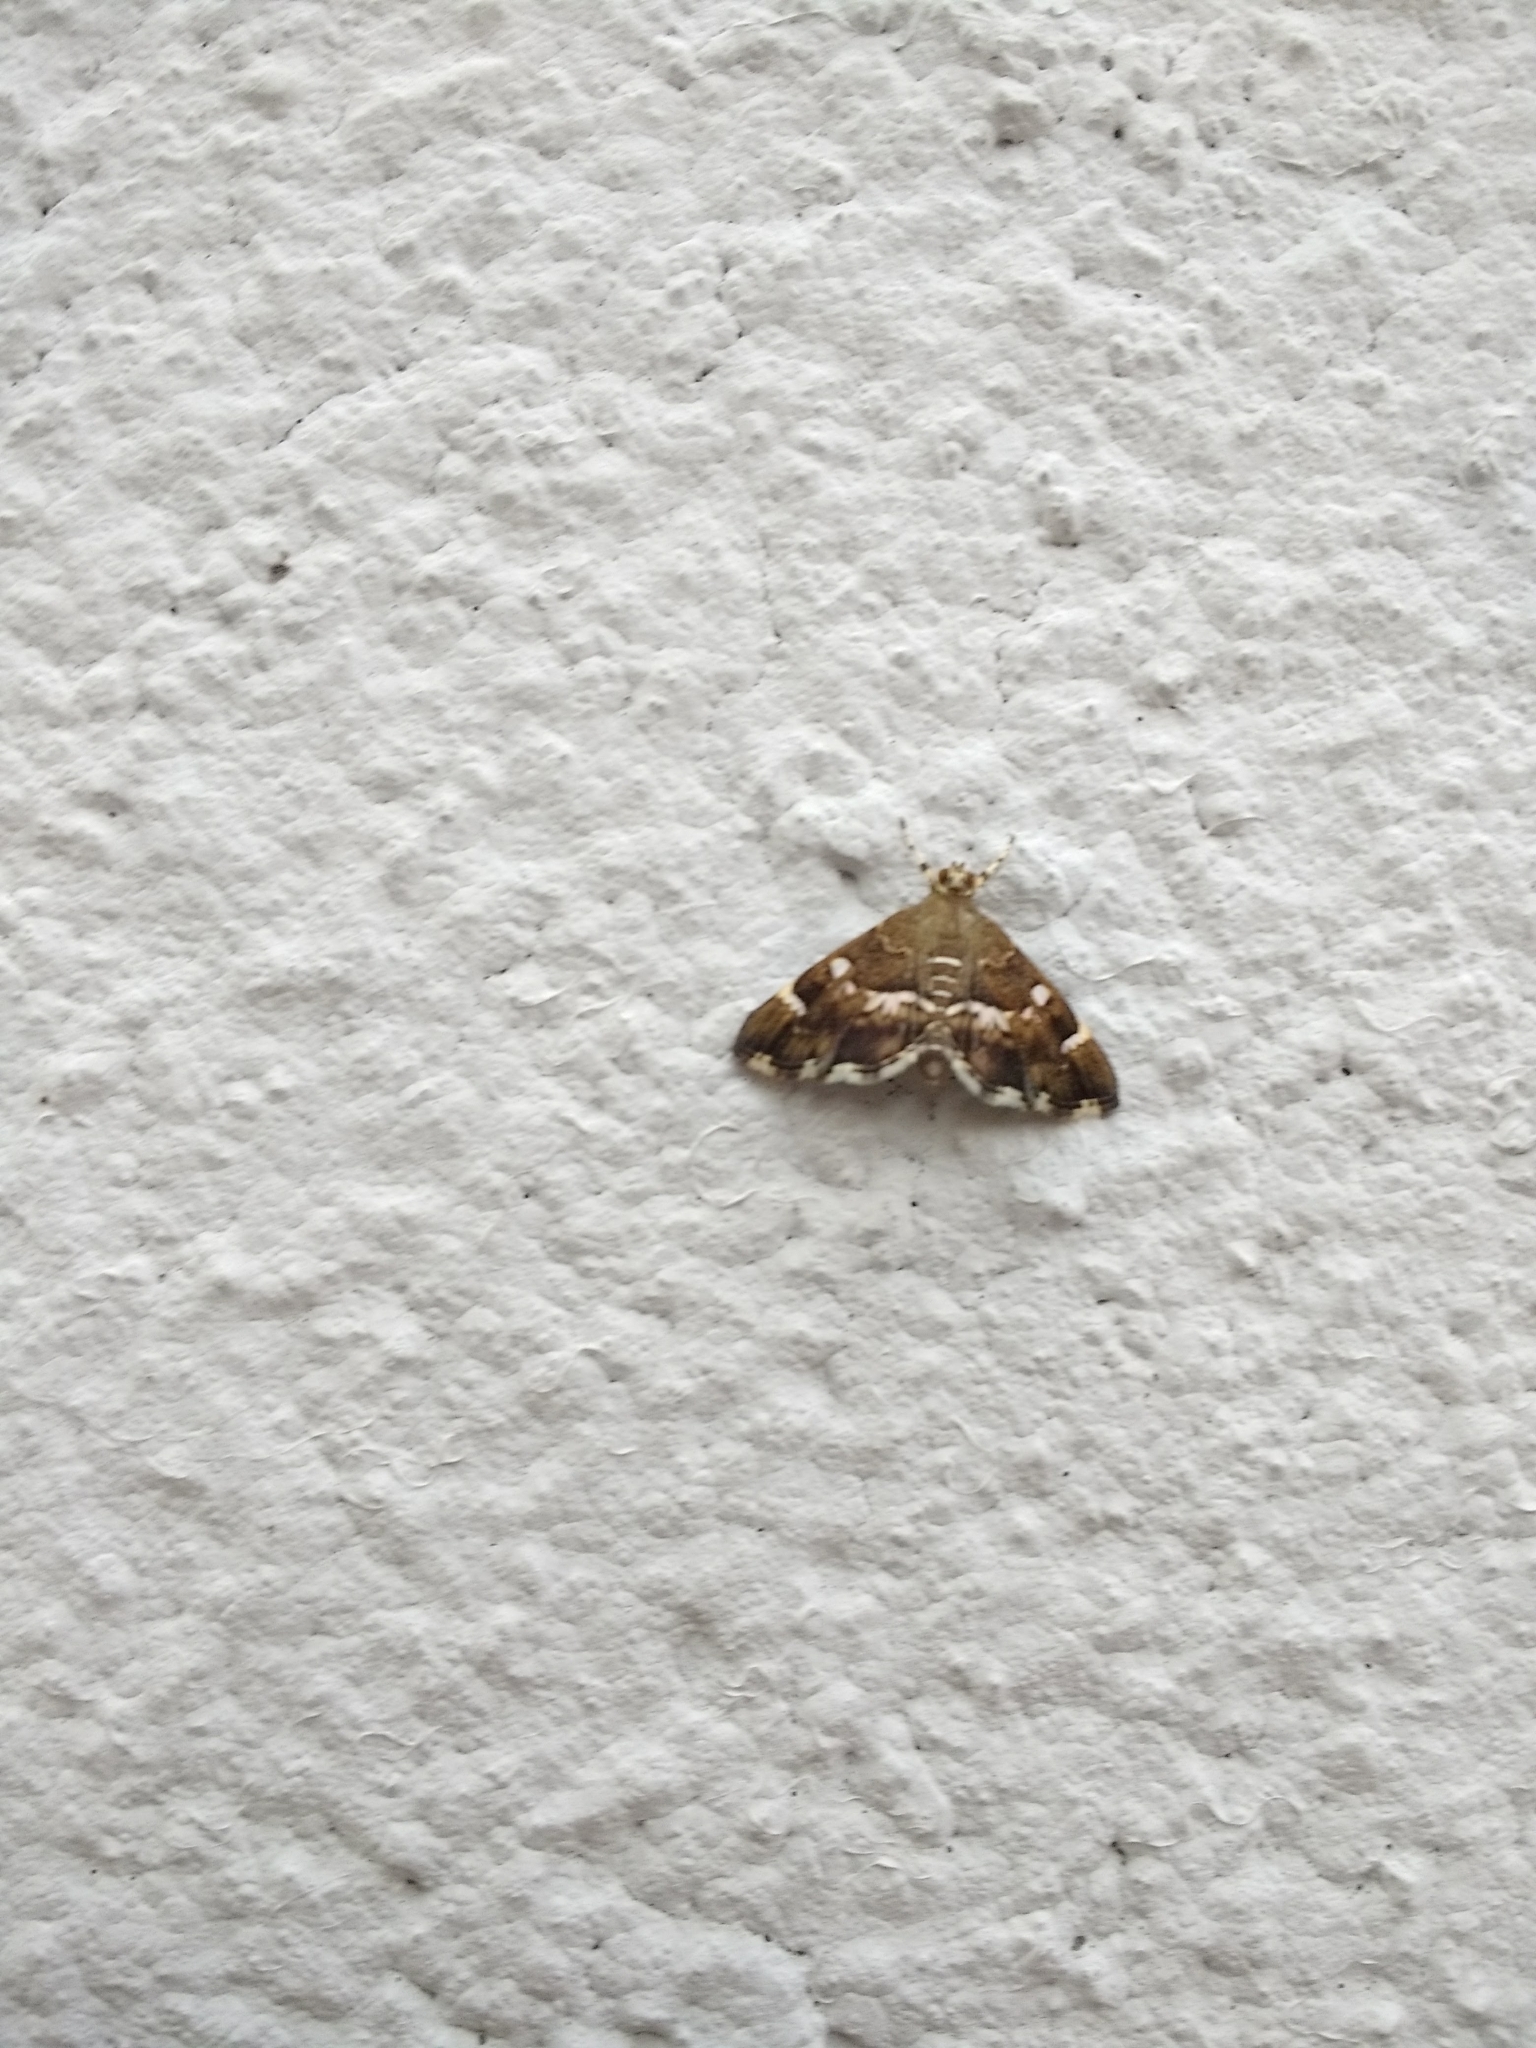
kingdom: Animalia
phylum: Arthropoda
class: Insecta
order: Lepidoptera
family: Crambidae
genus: Hymenia
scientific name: Hymenia perspectalis
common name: Spotted beet webworm
